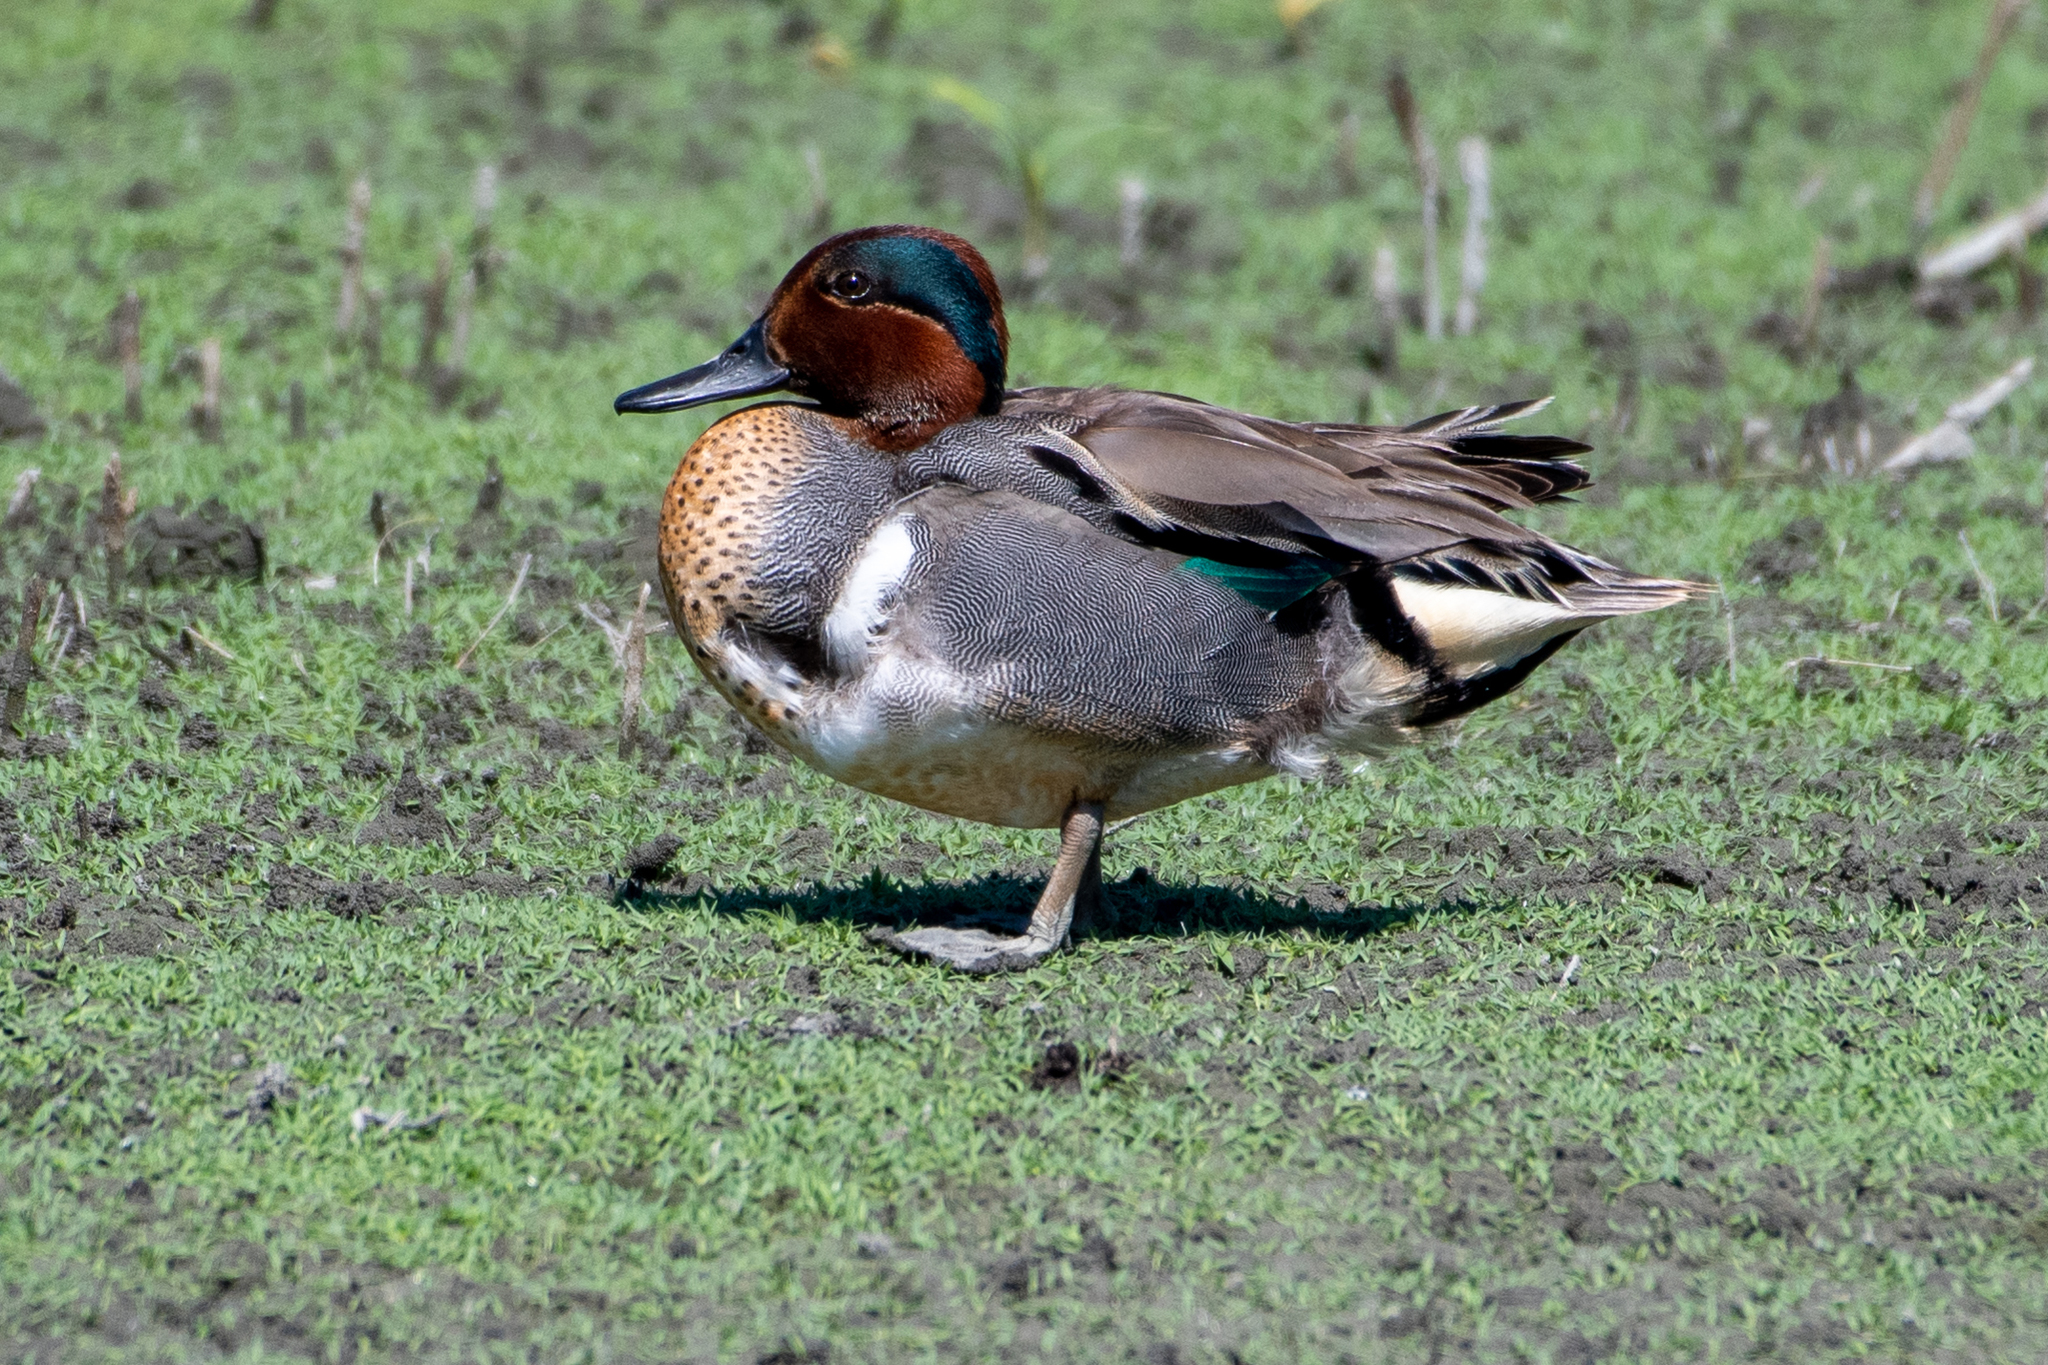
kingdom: Animalia
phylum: Chordata
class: Aves
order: Anseriformes
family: Anatidae
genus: Anas
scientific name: Anas crecca
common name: Eurasian teal
